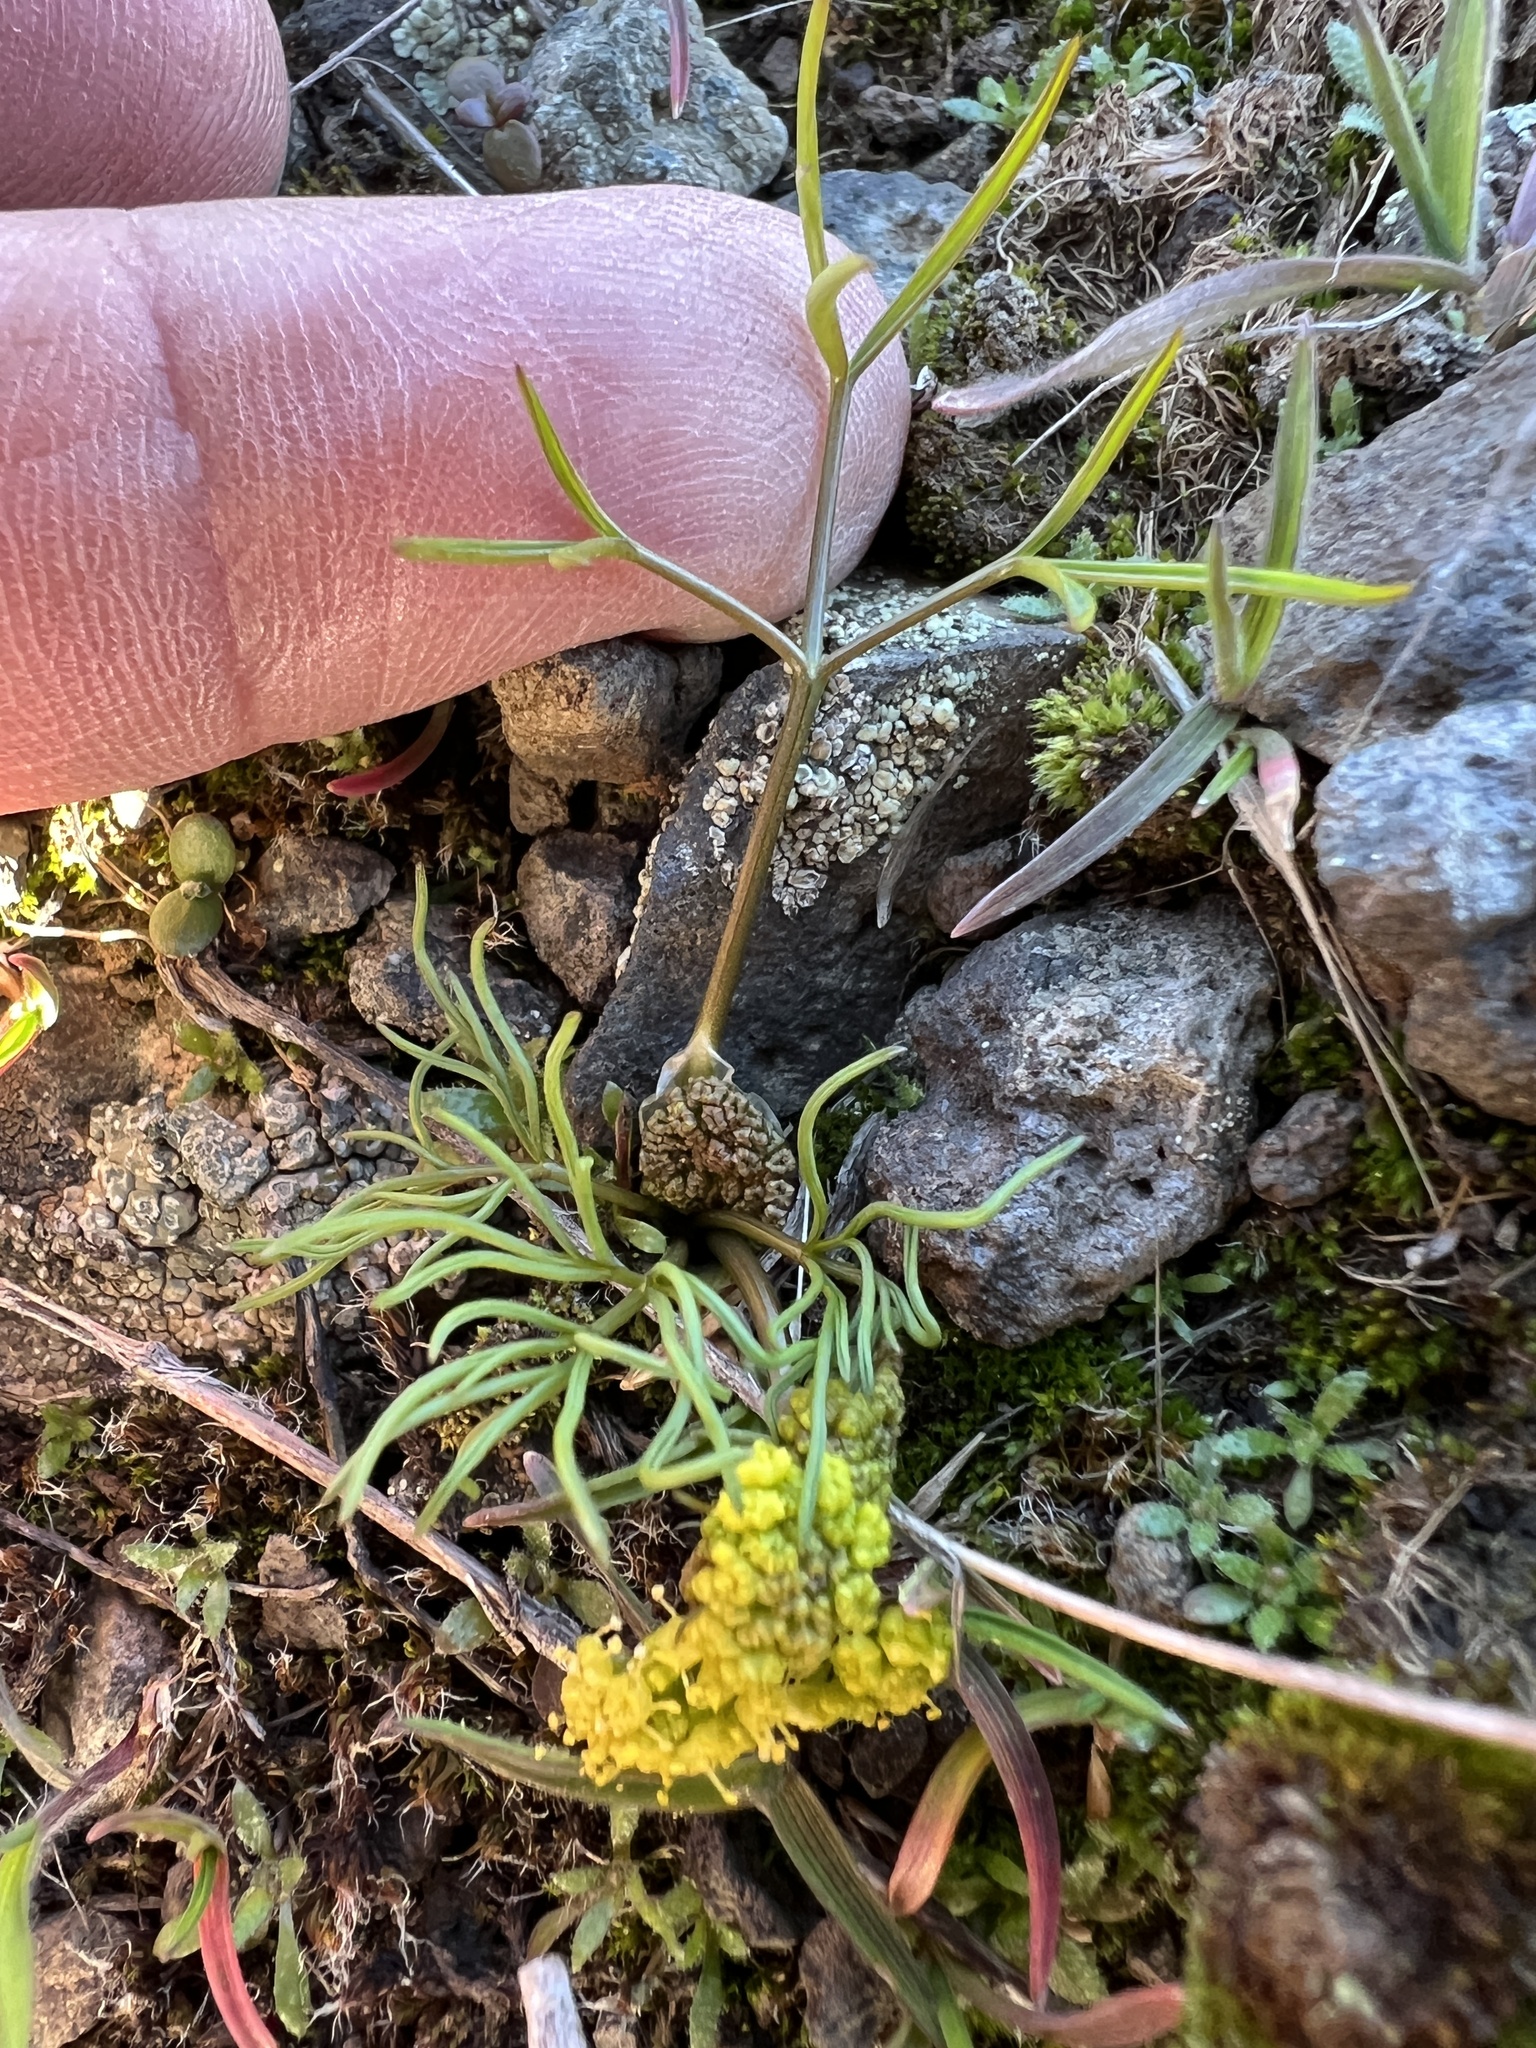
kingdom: Plantae
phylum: Tracheophyta
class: Magnoliopsida
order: Apiales
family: Apiaceae
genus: Lomatium
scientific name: Lomatium farinosum
